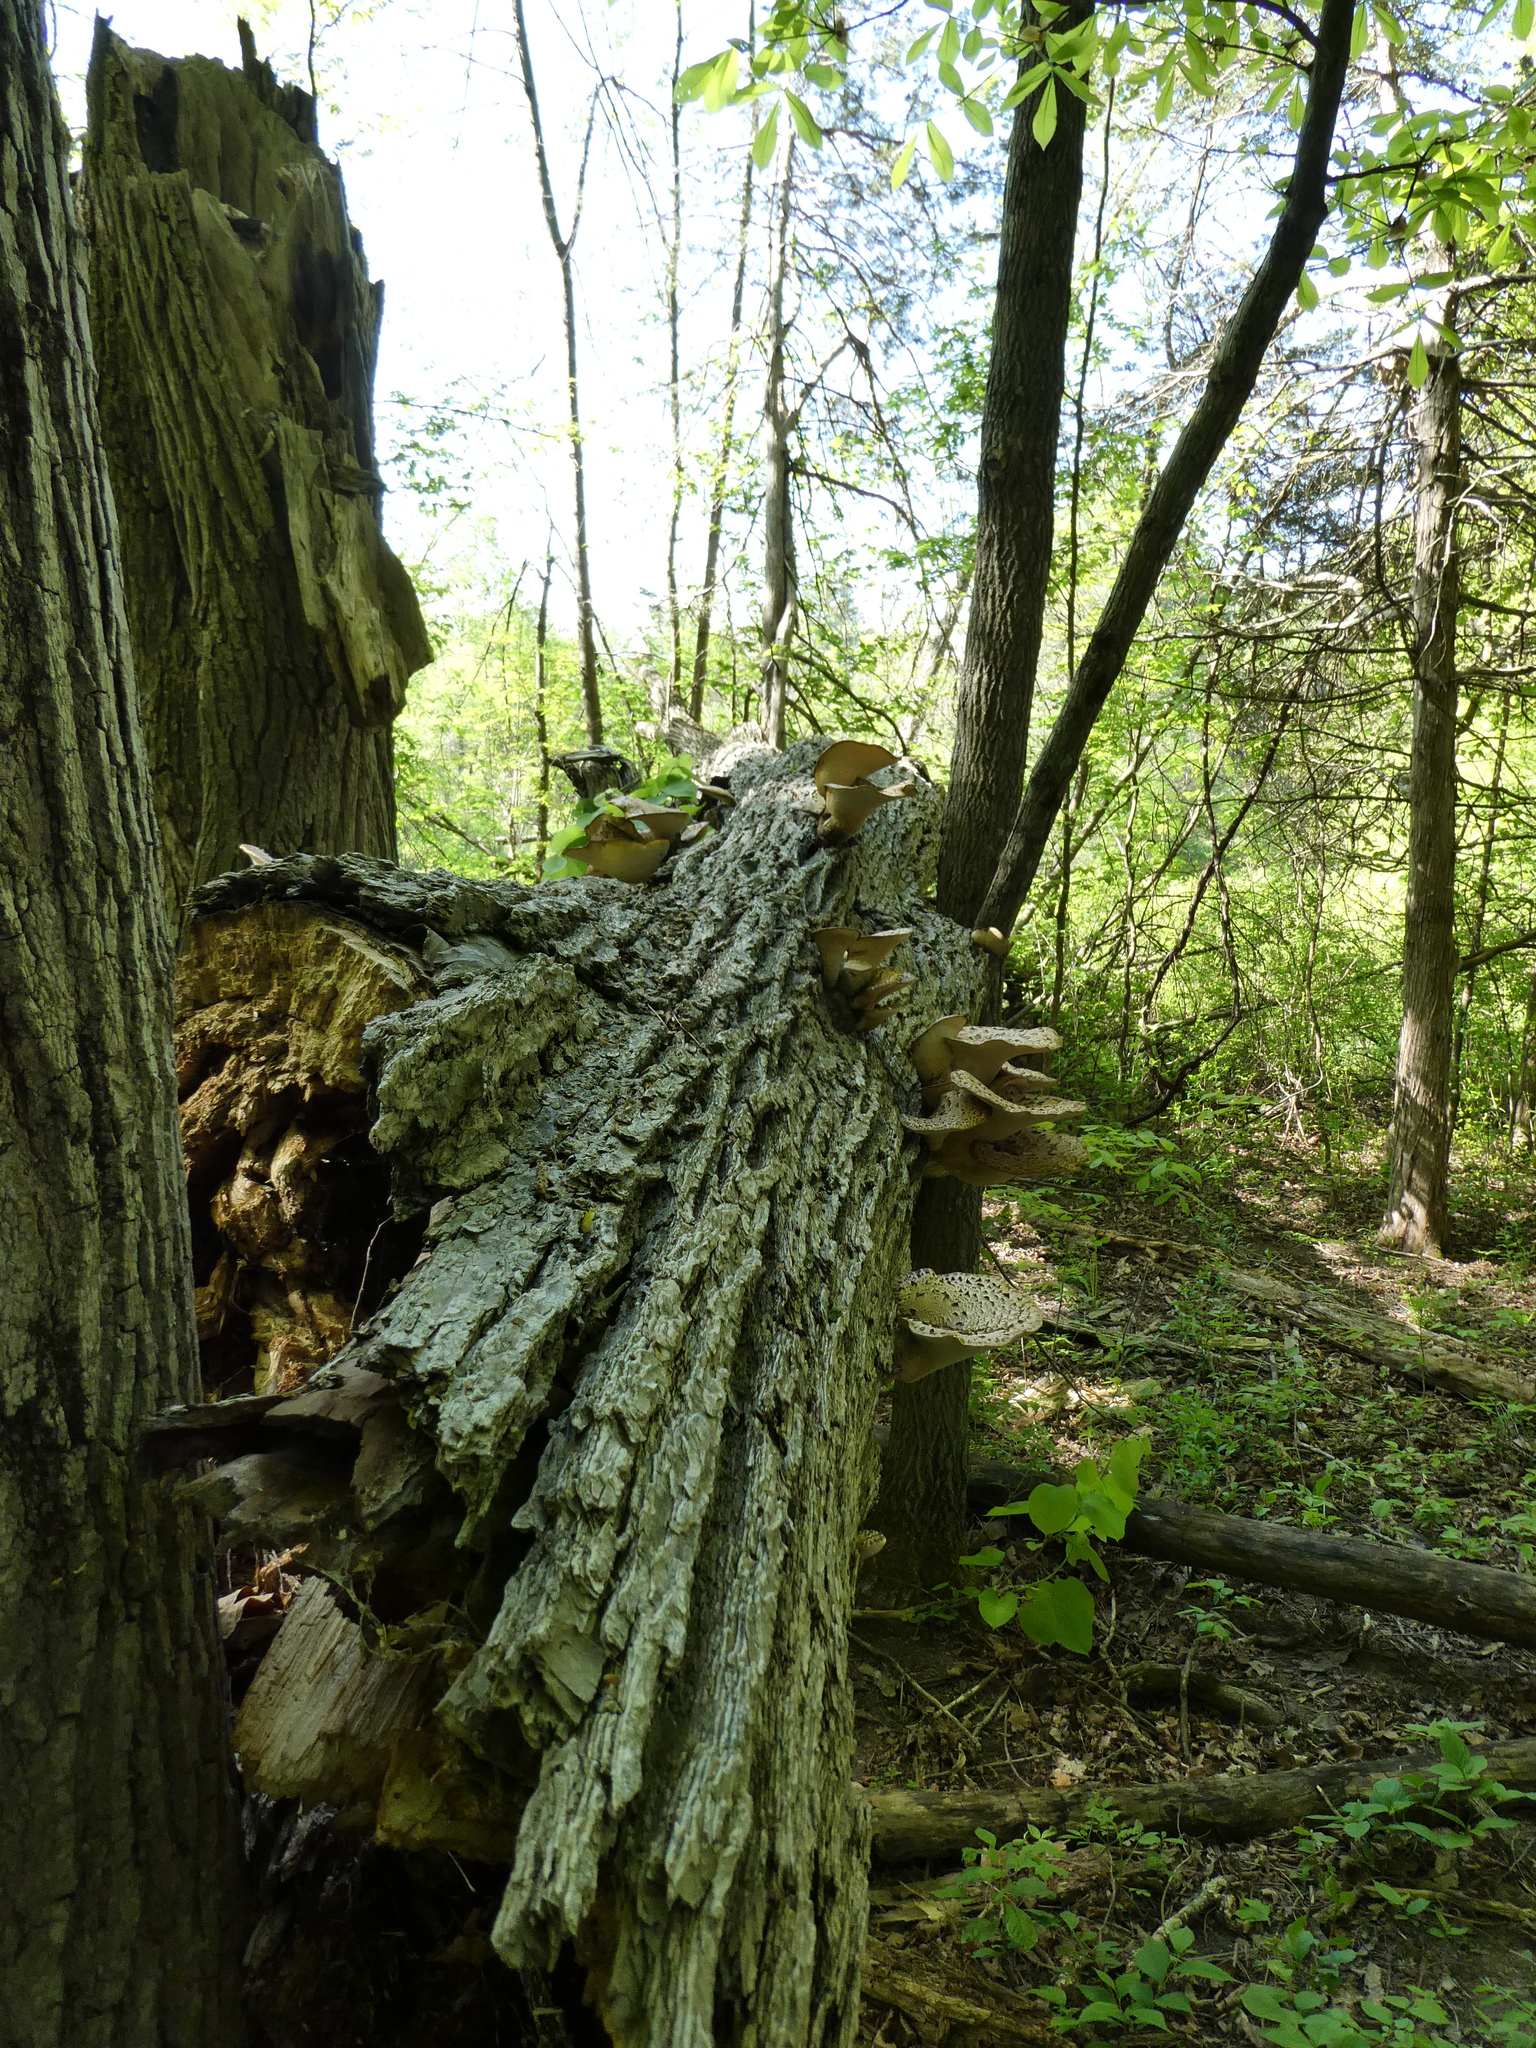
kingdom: Fungi
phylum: Basidiomycota
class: Agaricomycetes
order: Polyporales
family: Polyporaceae
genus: Cerioporus
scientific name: Cerioporus squamosus
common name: Dryad's saddle
